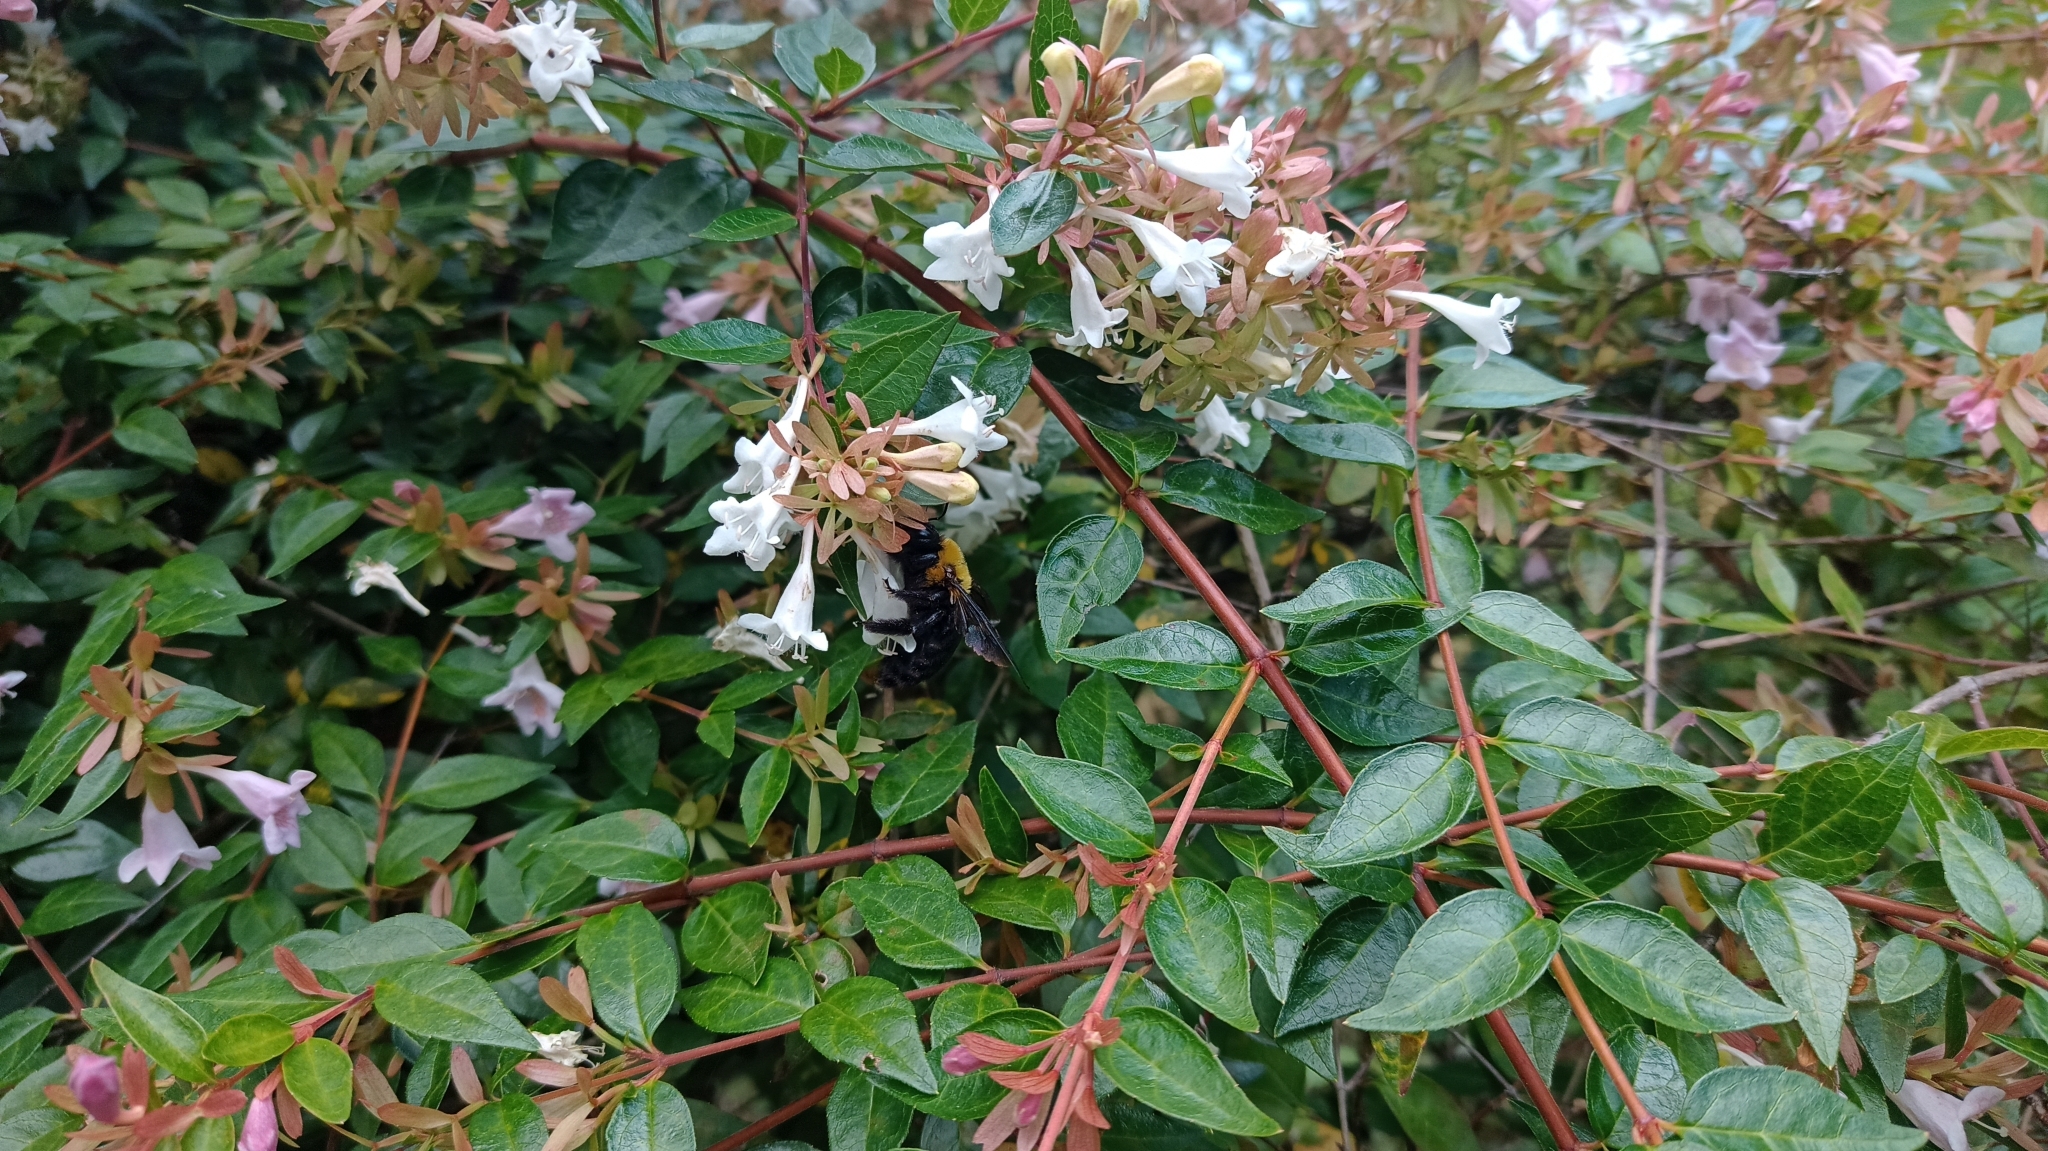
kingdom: Animalia
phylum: Arthropoda
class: Insecta
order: Hymenoptera
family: Apidae
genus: Xylocopa
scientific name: Xylocopa appendiculata
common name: Japanese carpenter bee
